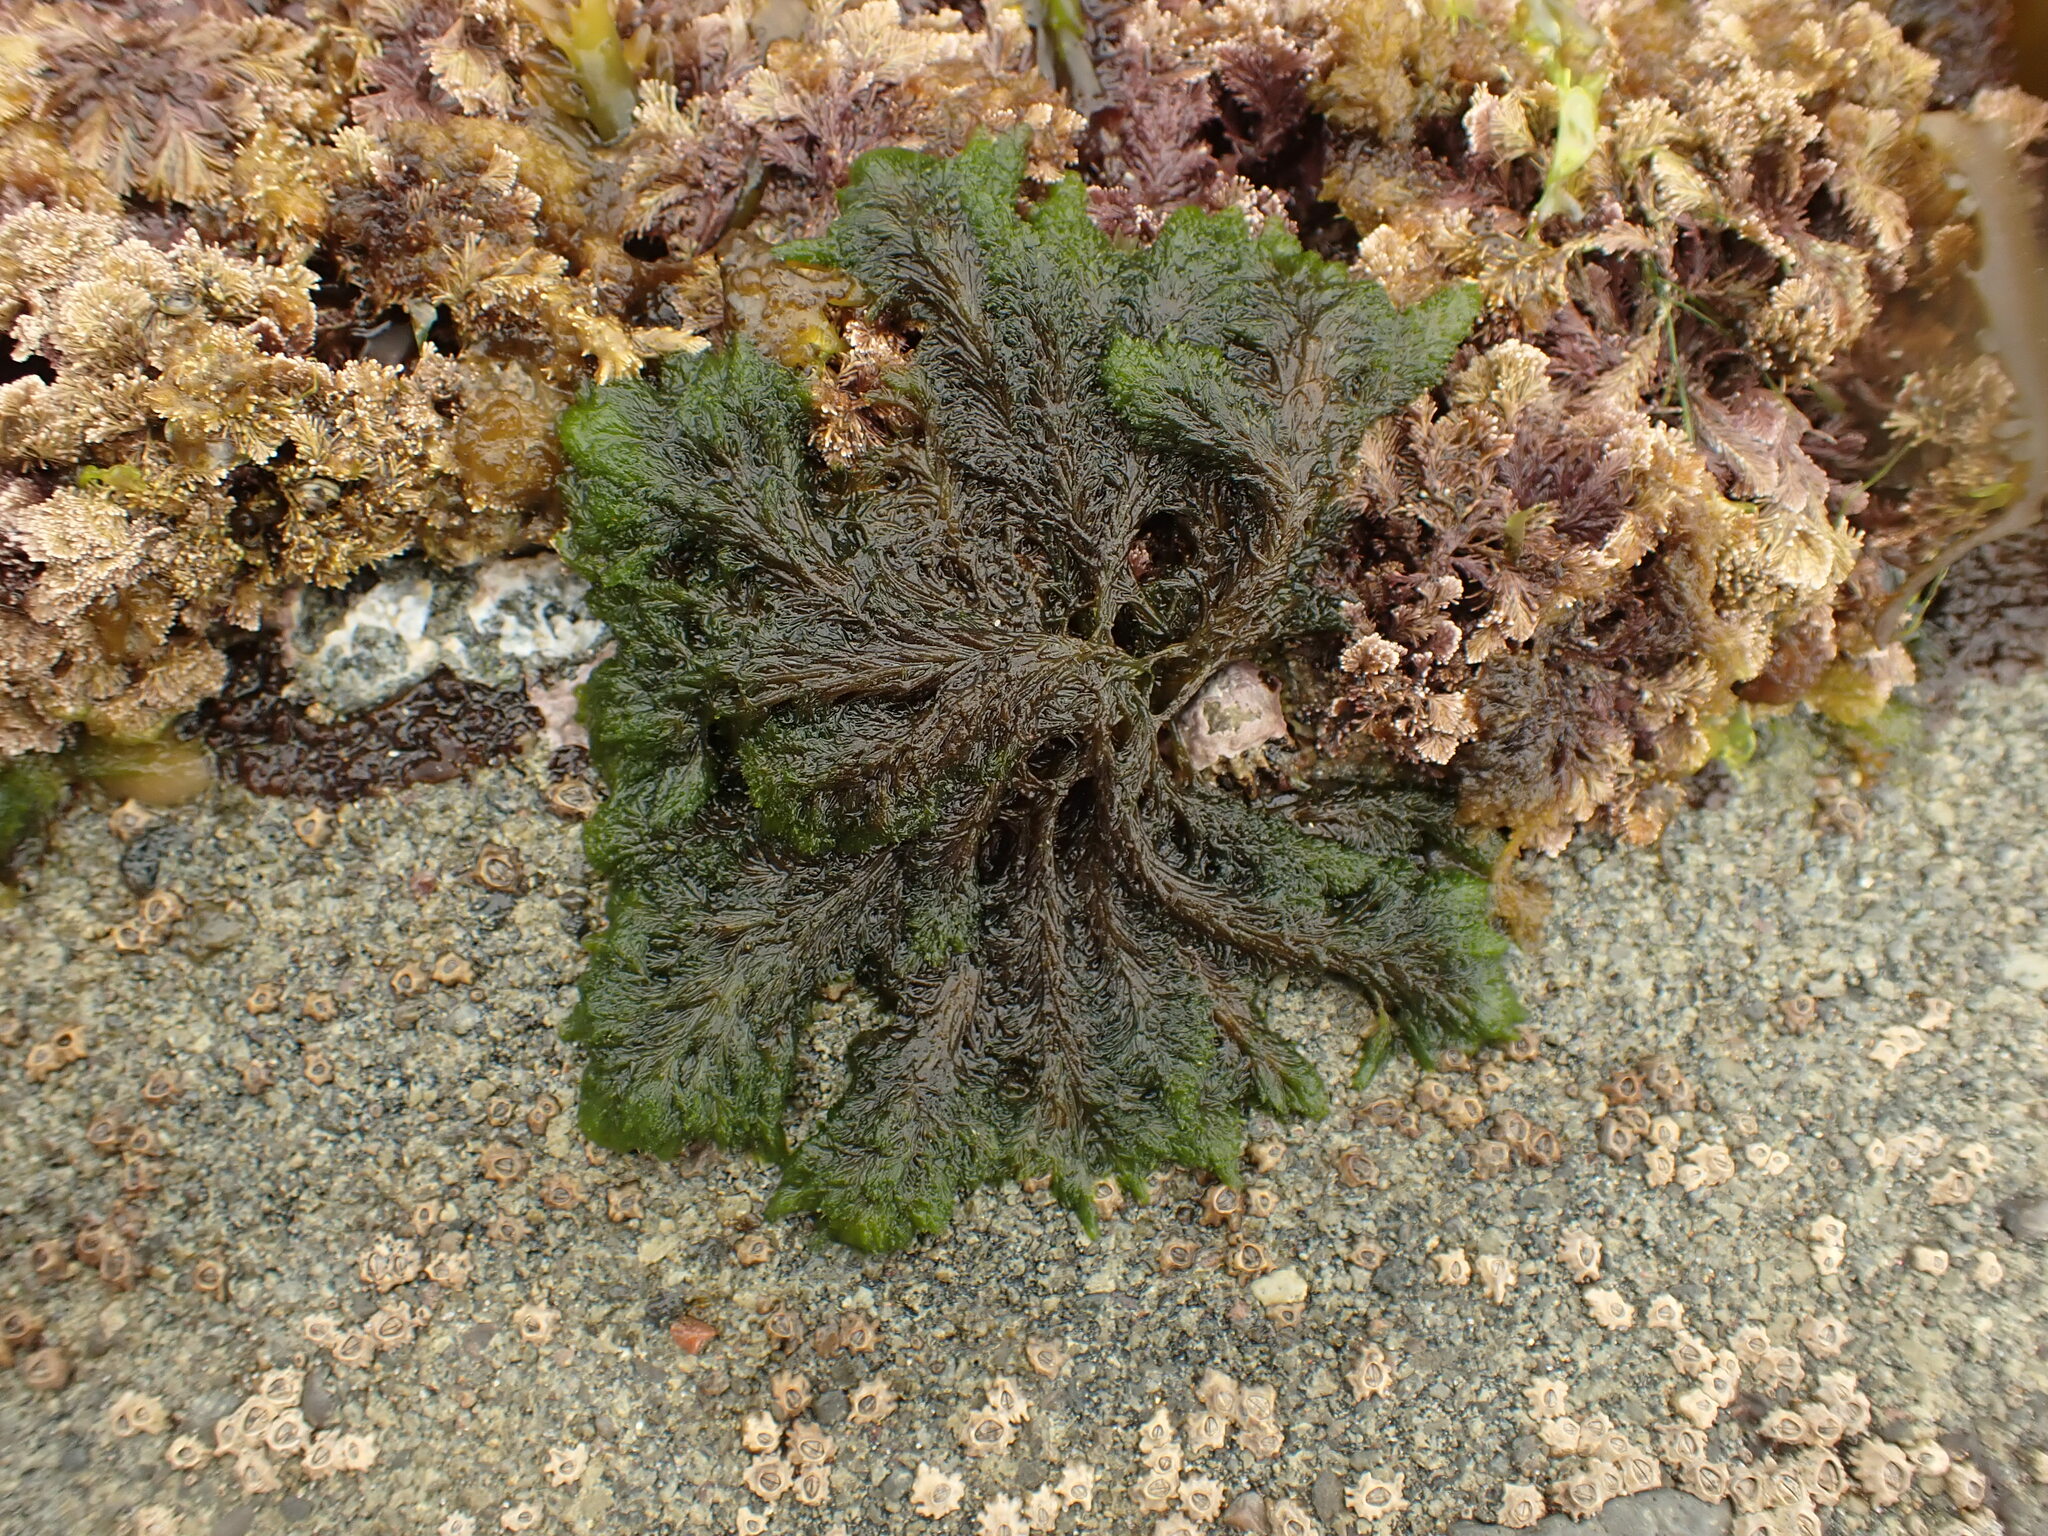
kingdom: Plantae
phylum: Chlorophyta
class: Ulvophyceae
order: Bryopsidales
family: Bryopsidaceae
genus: Bryopsis
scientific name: Bryopsis vestita
